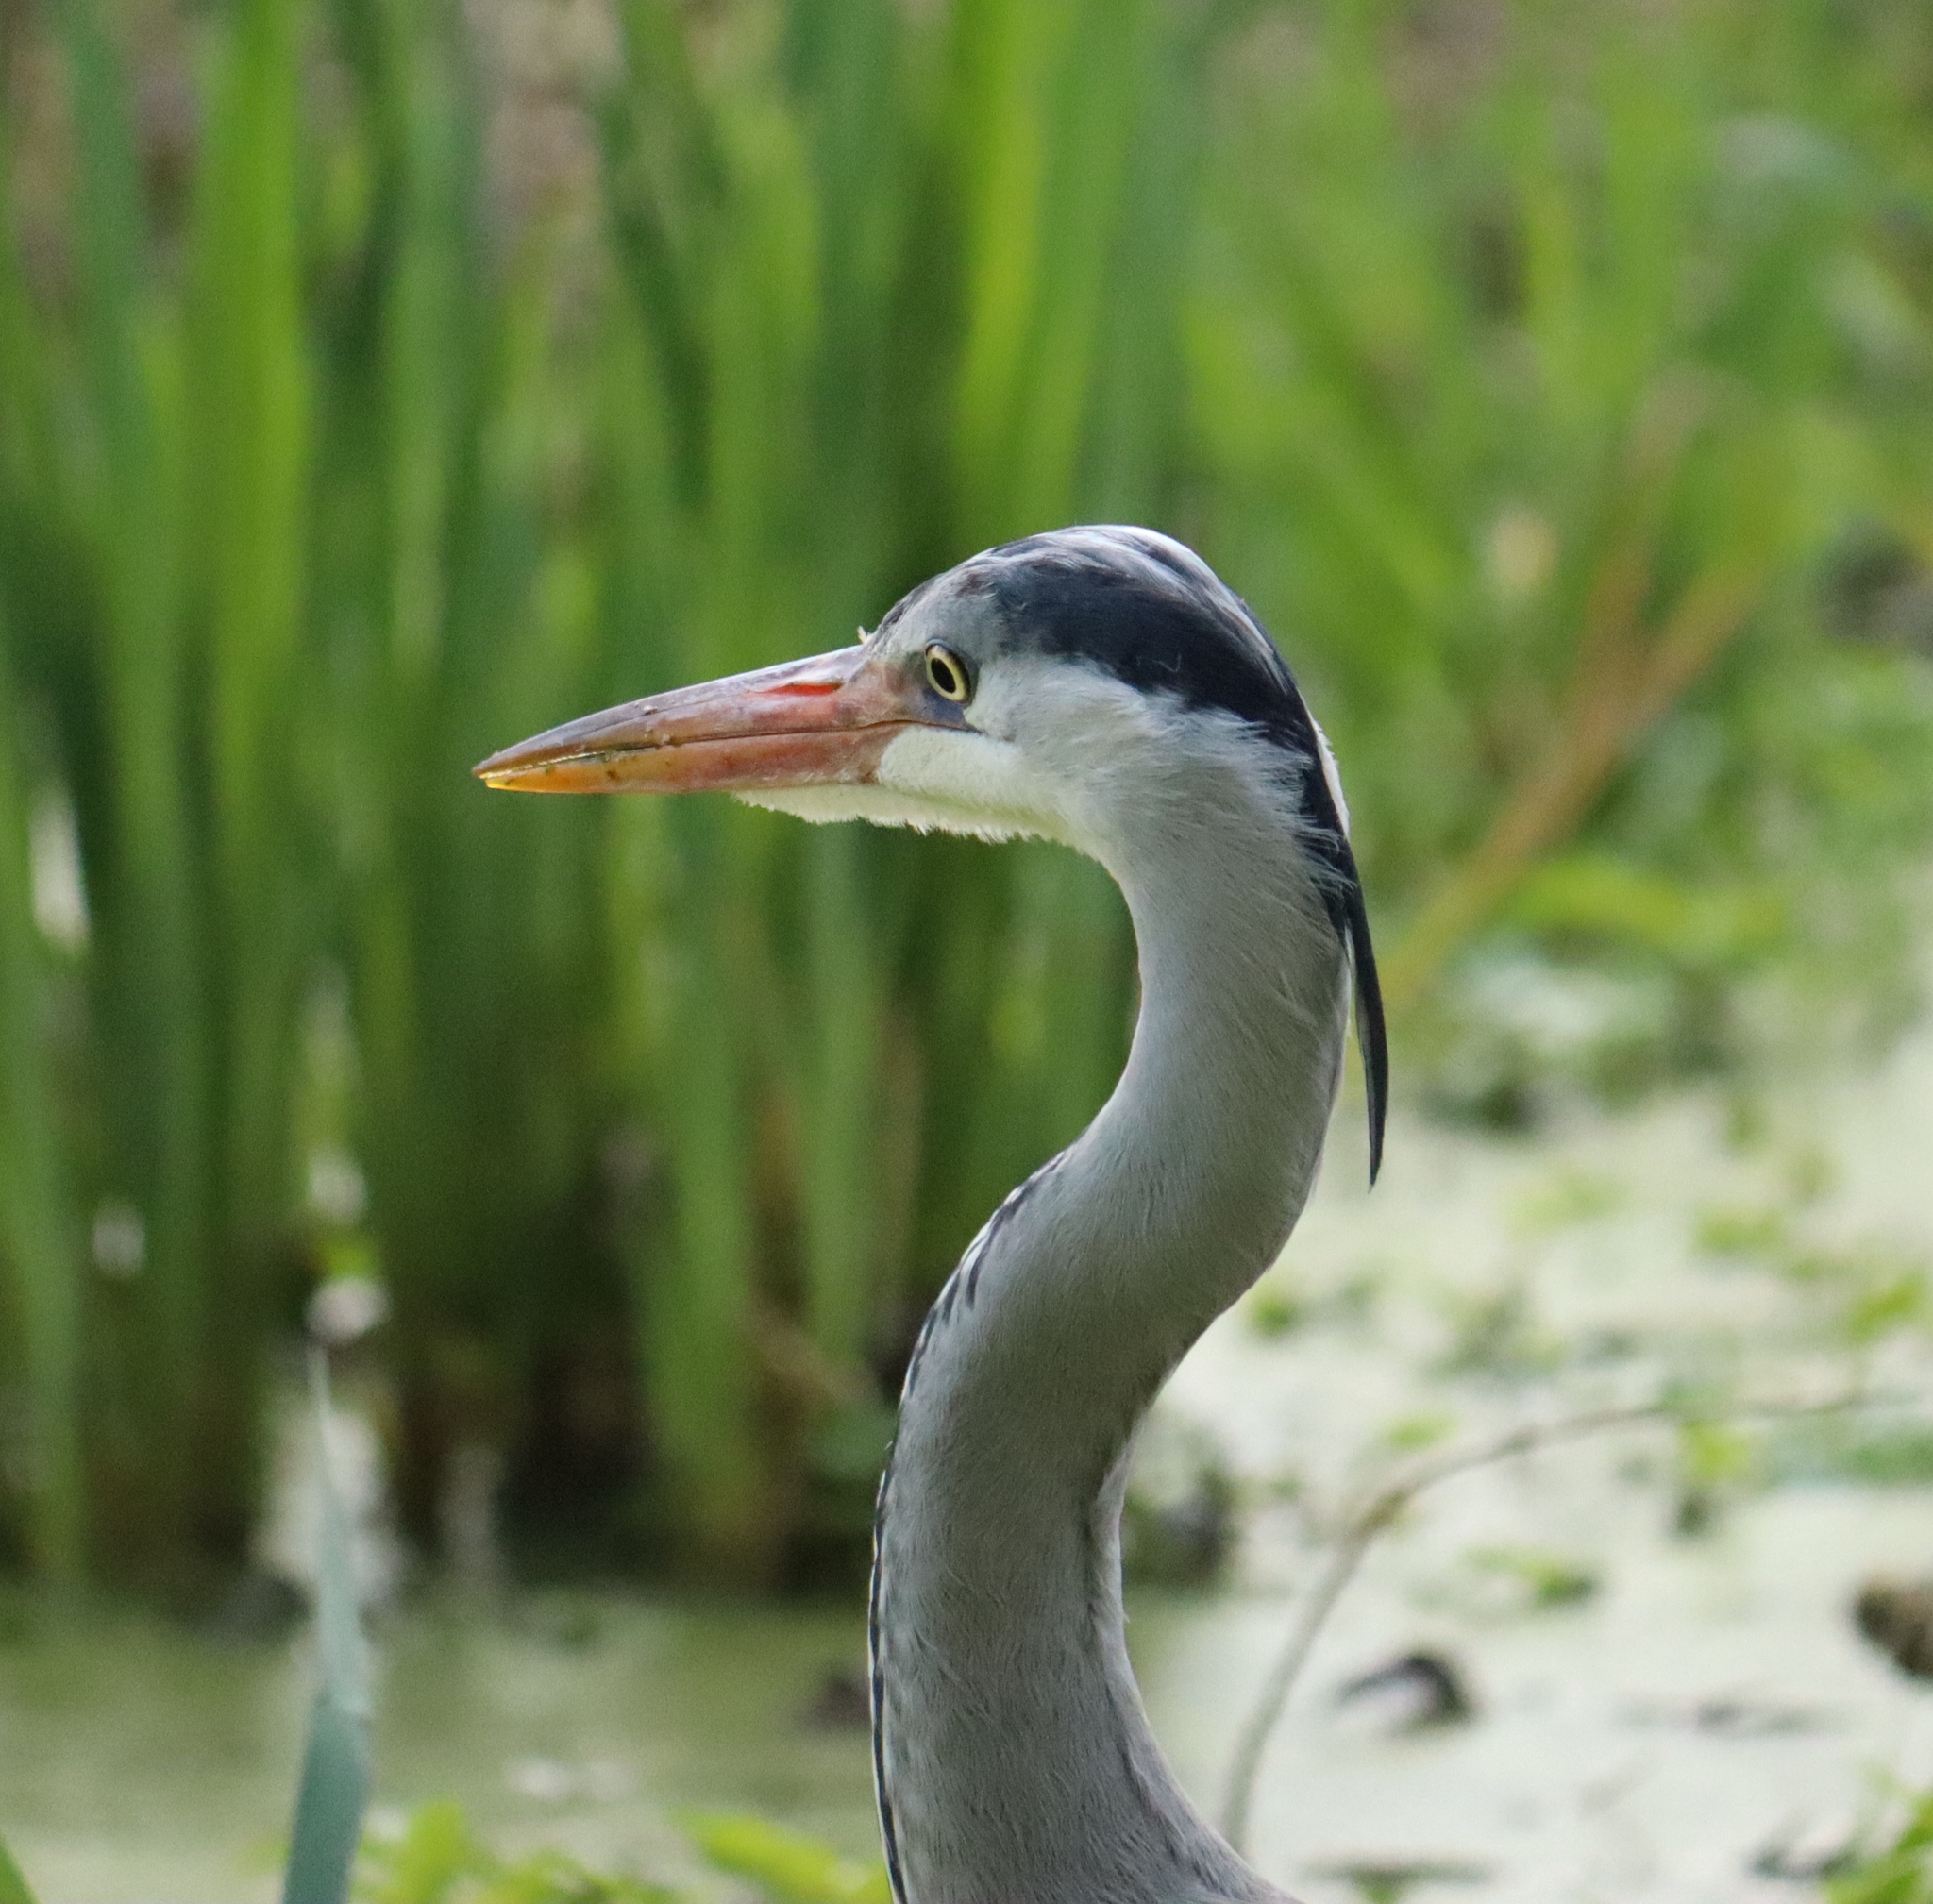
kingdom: Animalia
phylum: Chordata
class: Aves
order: Pelecaniformes
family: Ardeidae
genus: Ardea
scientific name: Ardea cinerea
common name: Grey heron
